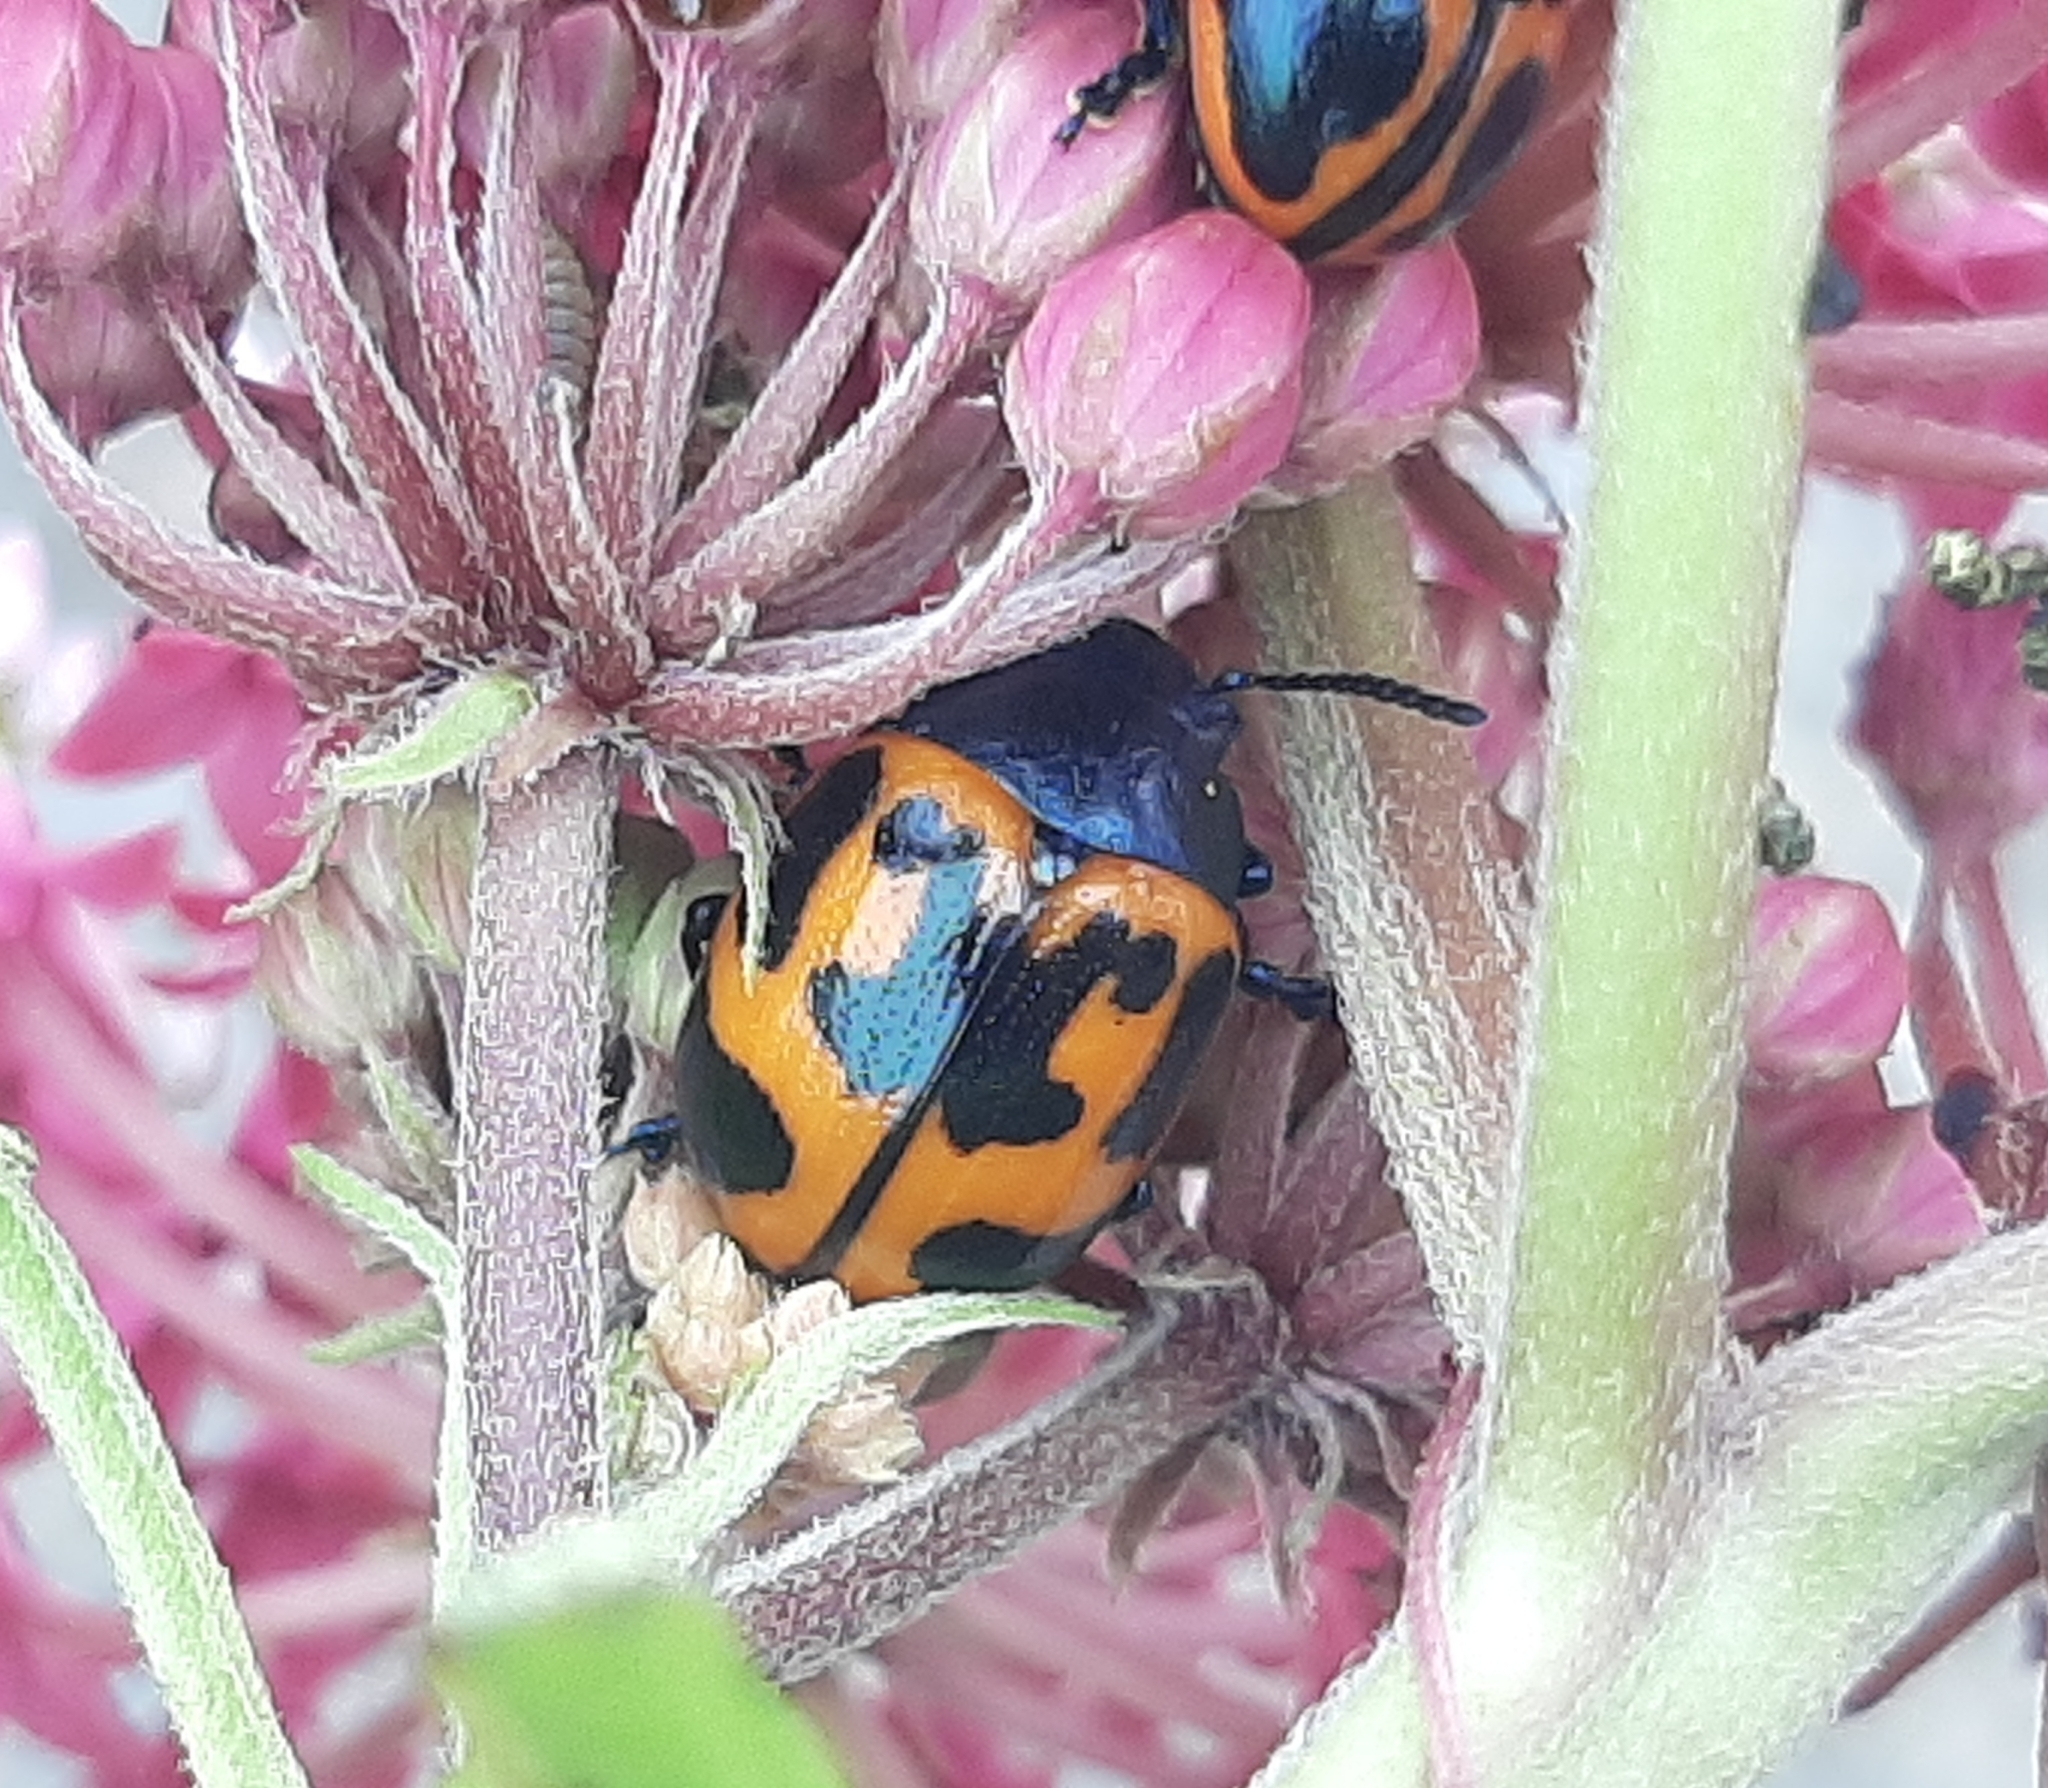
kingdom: Animalia
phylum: Arthropoda
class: Insecta
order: Coleoptera
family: Chrysomelidae
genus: Labidomera
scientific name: Labidomera clivicollis
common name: Swamp milkweed leaf beetle
